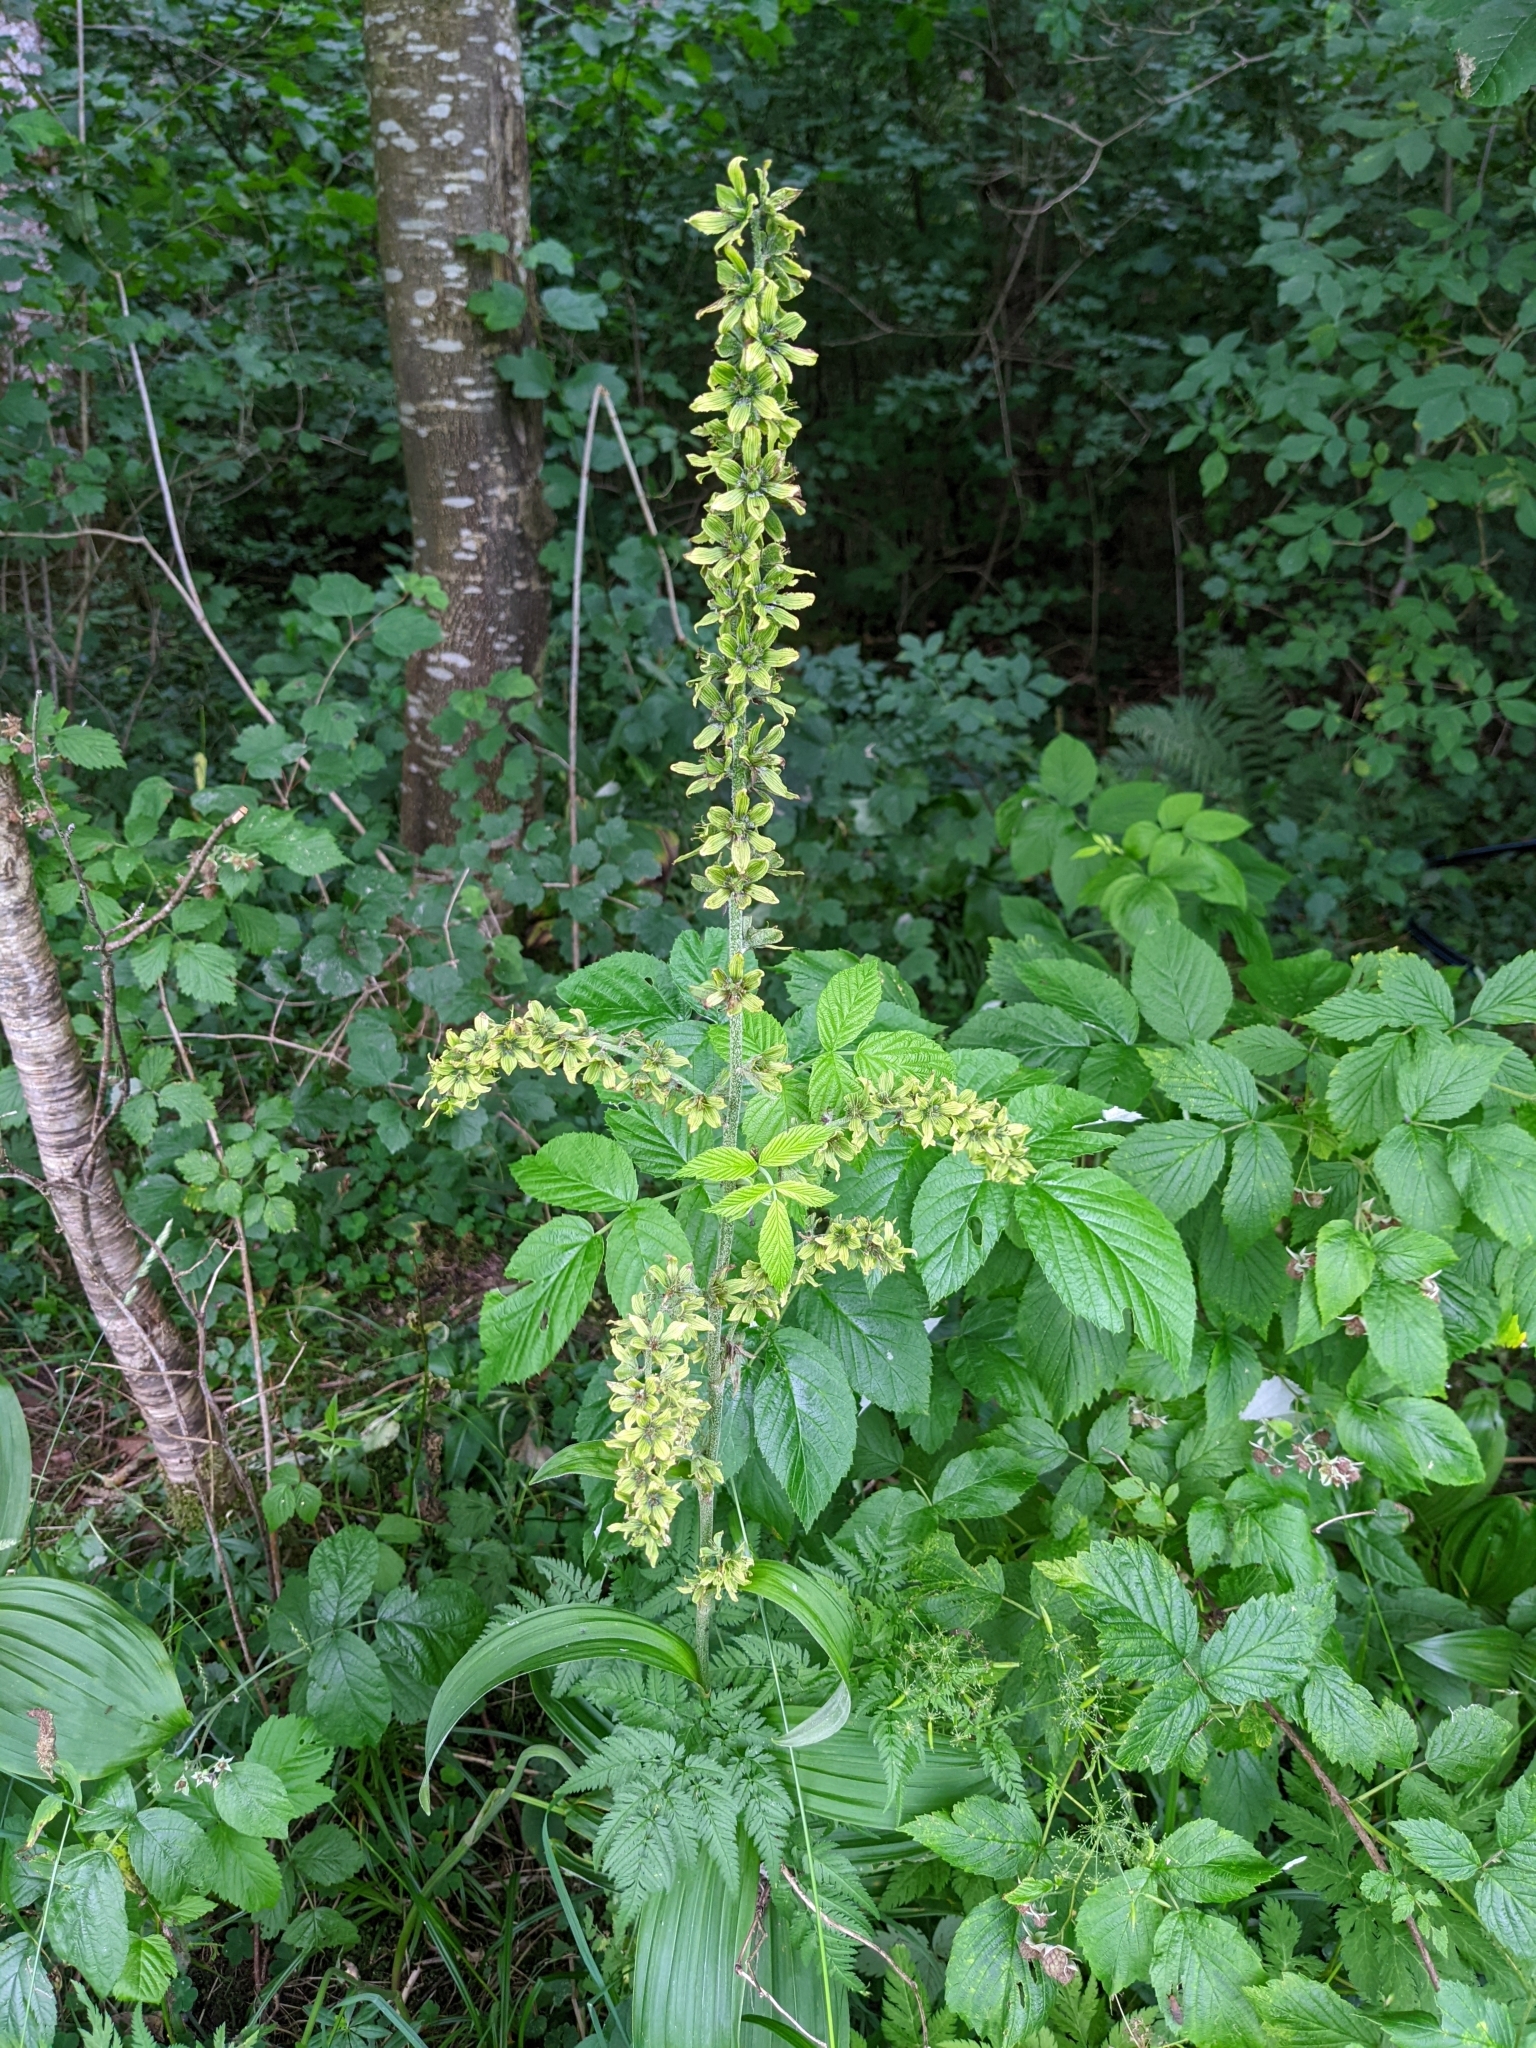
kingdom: Plantae
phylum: Tracheophyta
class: Liliopsida
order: Liliales
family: Melanthiaceae
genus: Veratrum
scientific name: Veratrum lobelianum
